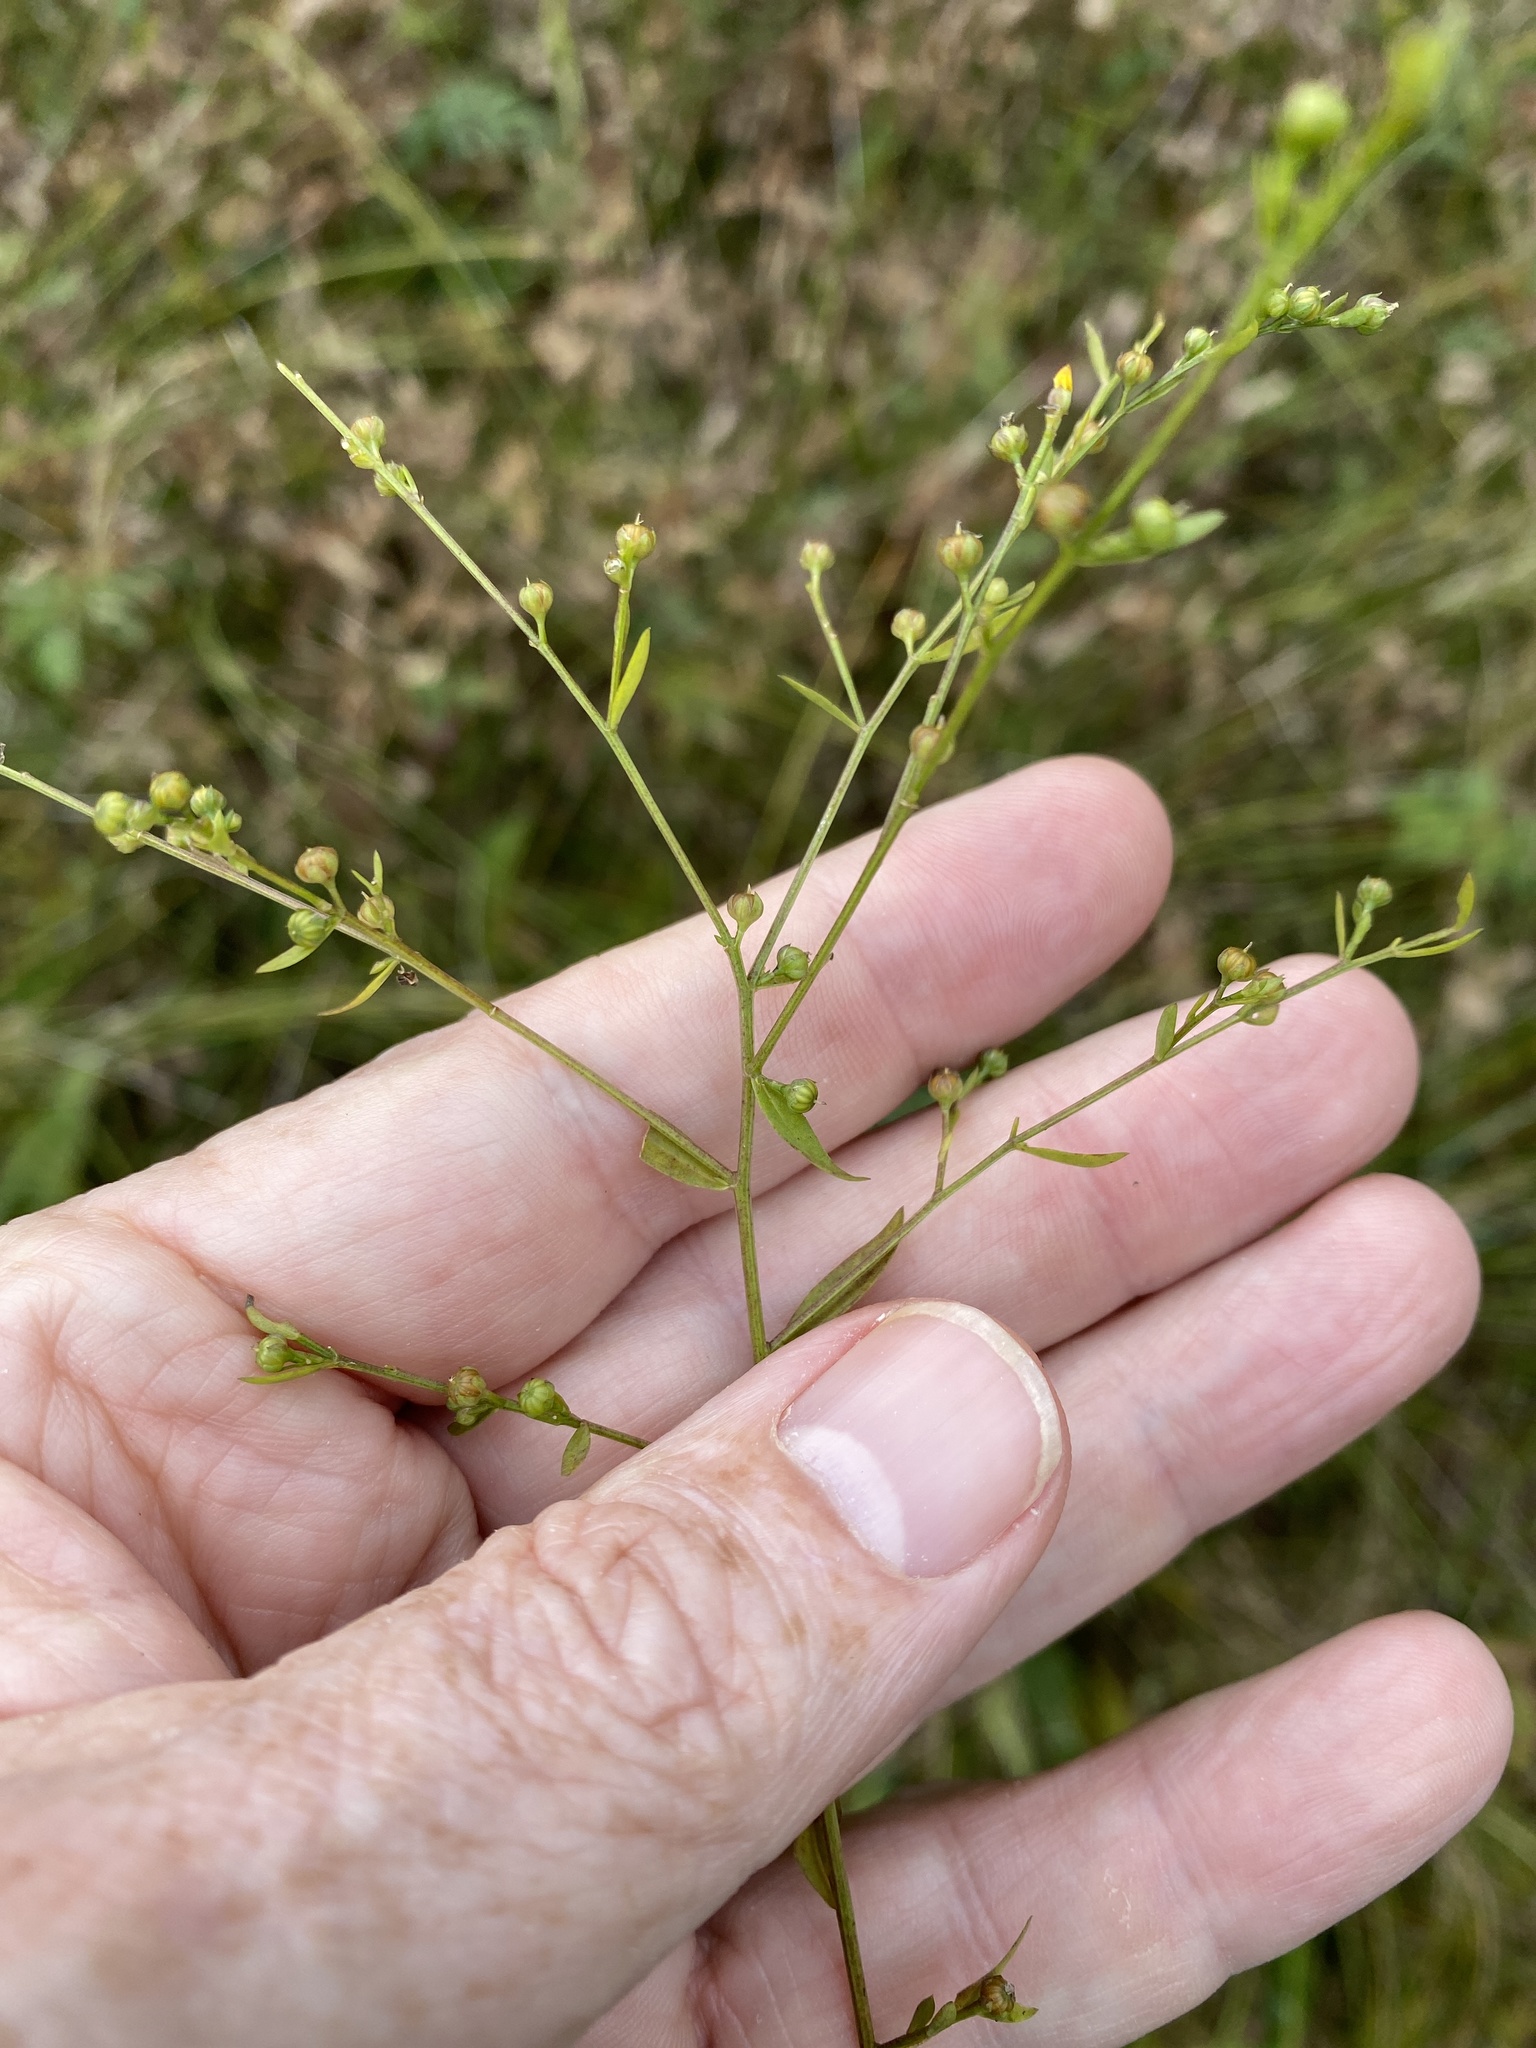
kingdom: Plantae
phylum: Tracheophyta
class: Magnoliopsida
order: Malpighiales
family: Linaceae
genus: Linum
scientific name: Linum striatum
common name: Ridged yellow flax
